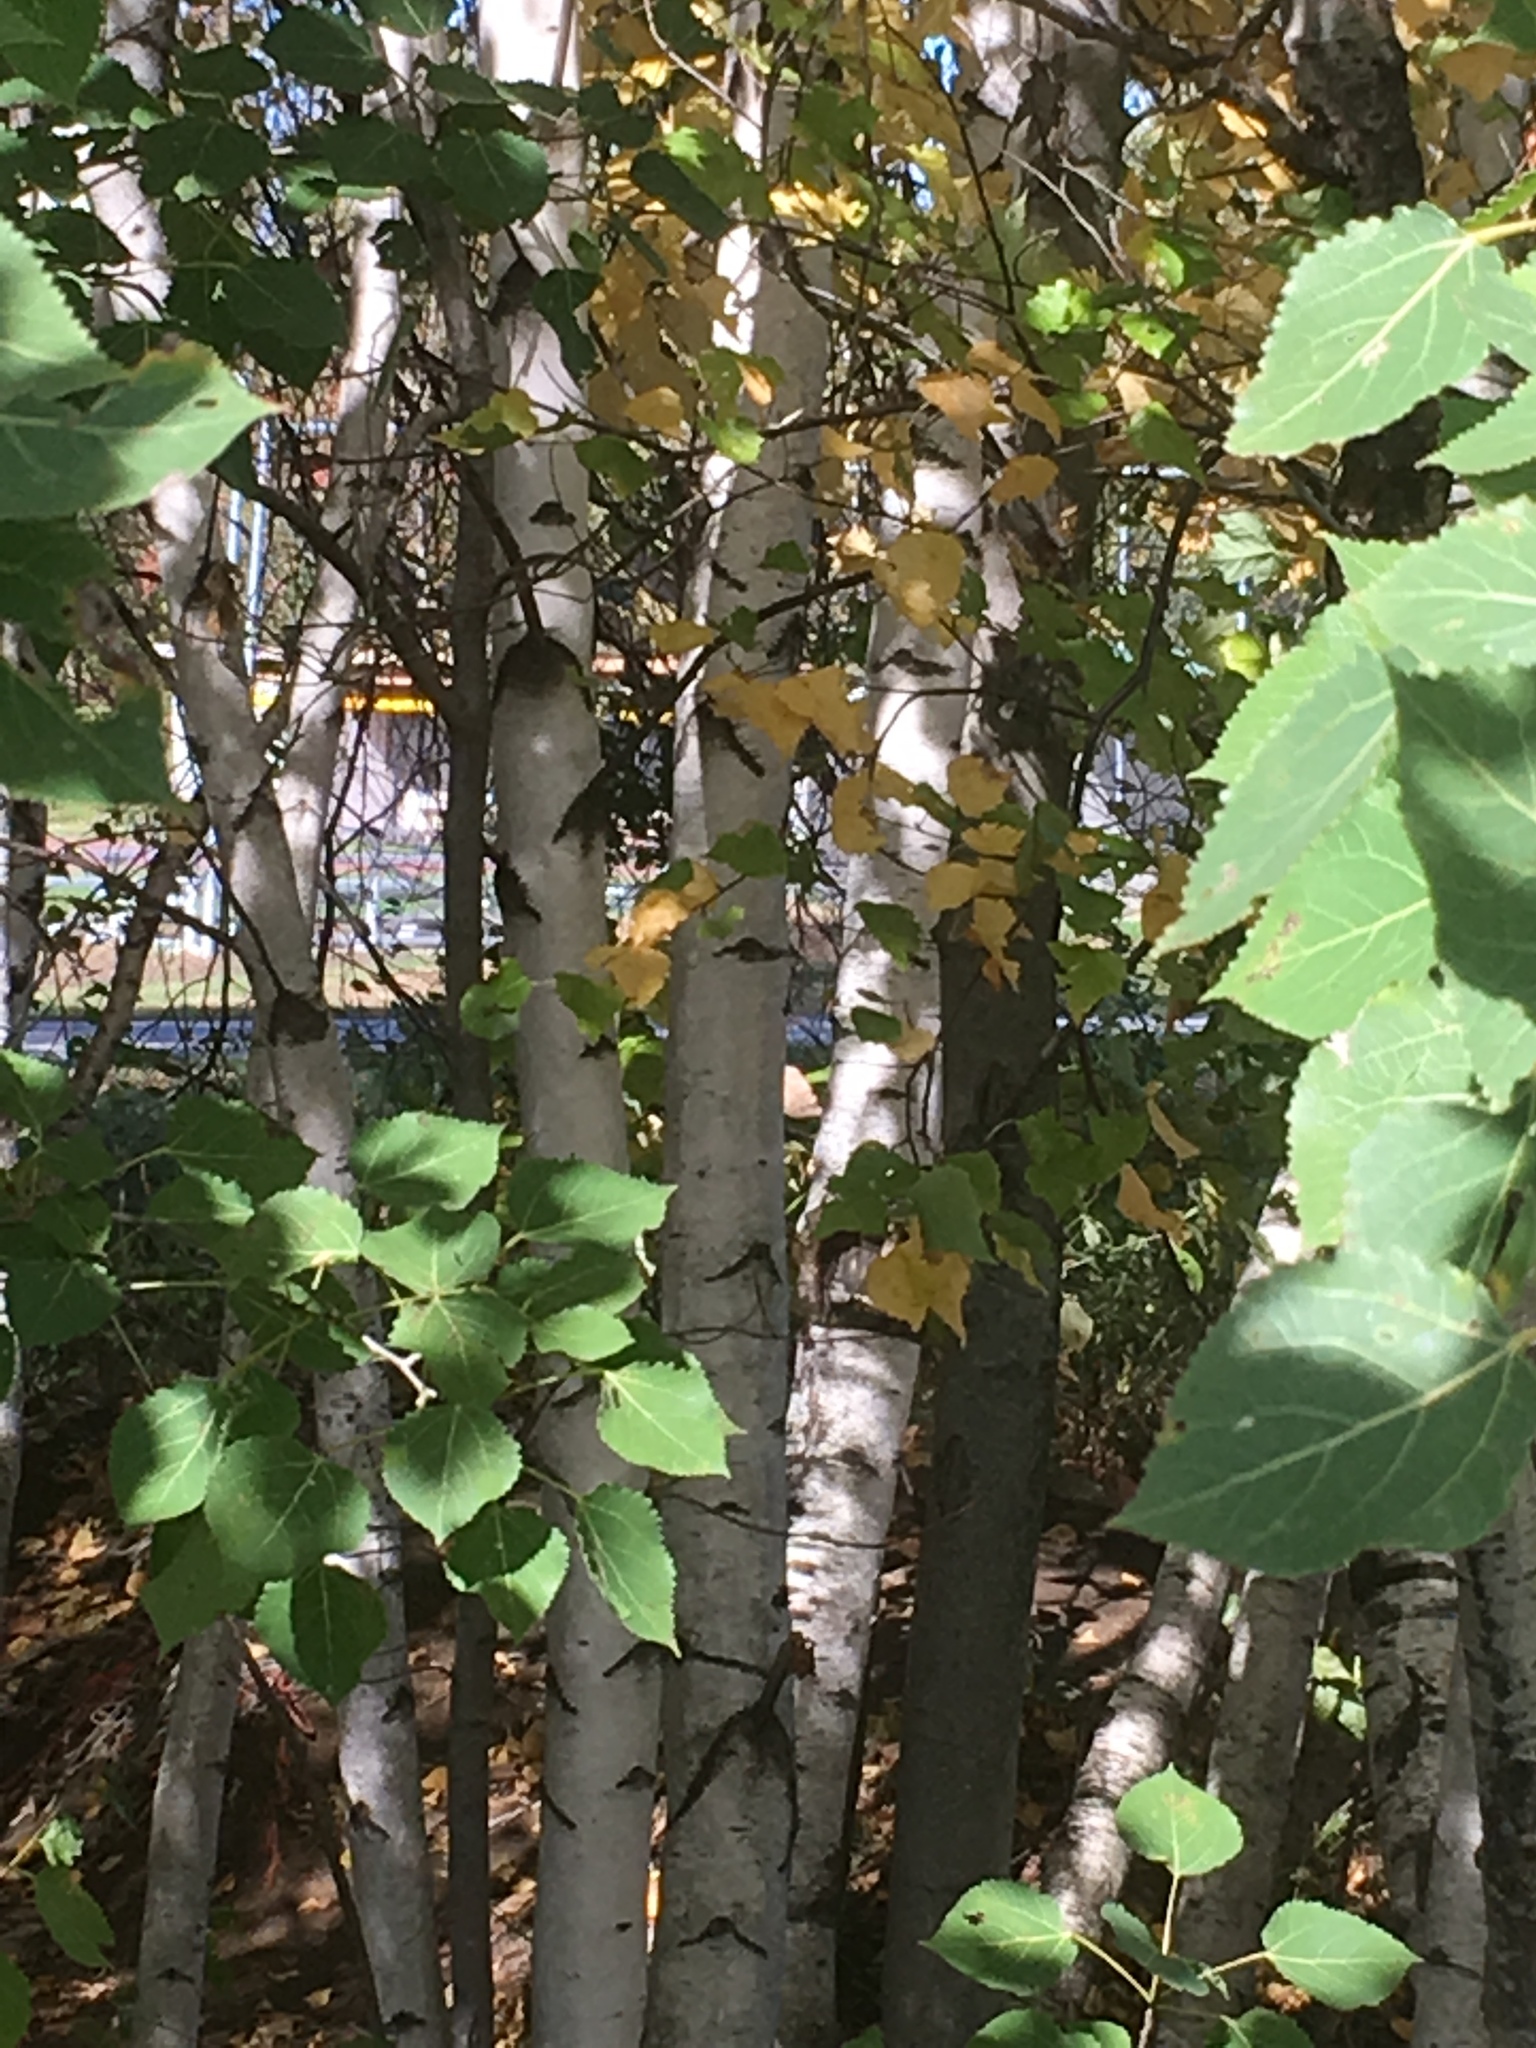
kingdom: Plantae
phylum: Tracheophyta
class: Magnoliopsida
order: Fagales
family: Betulaceae
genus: Betula
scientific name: Betula populifolia
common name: Fire birch
